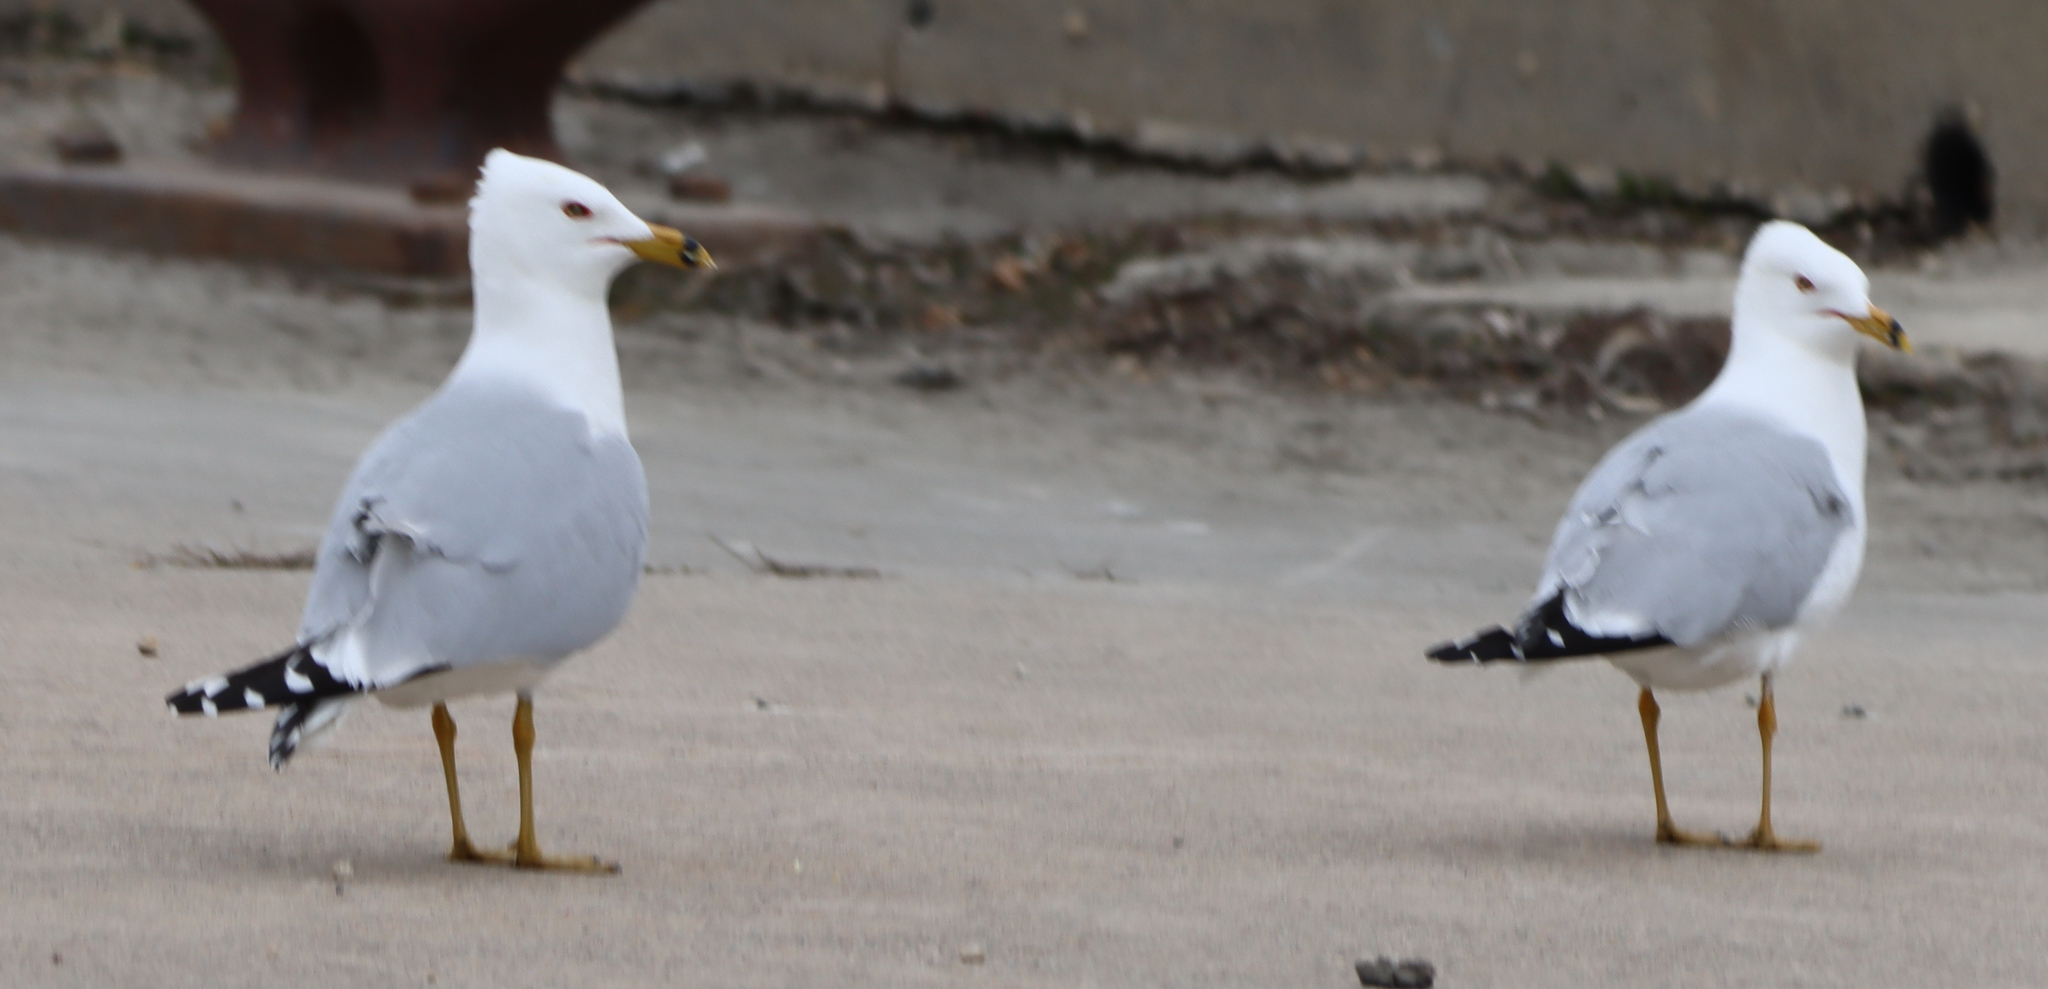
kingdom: Animalia
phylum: Chordata
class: Aves
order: Charadriiformes
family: Laridae
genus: Larus
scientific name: Larus delawarensis
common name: Ring-billed gull
